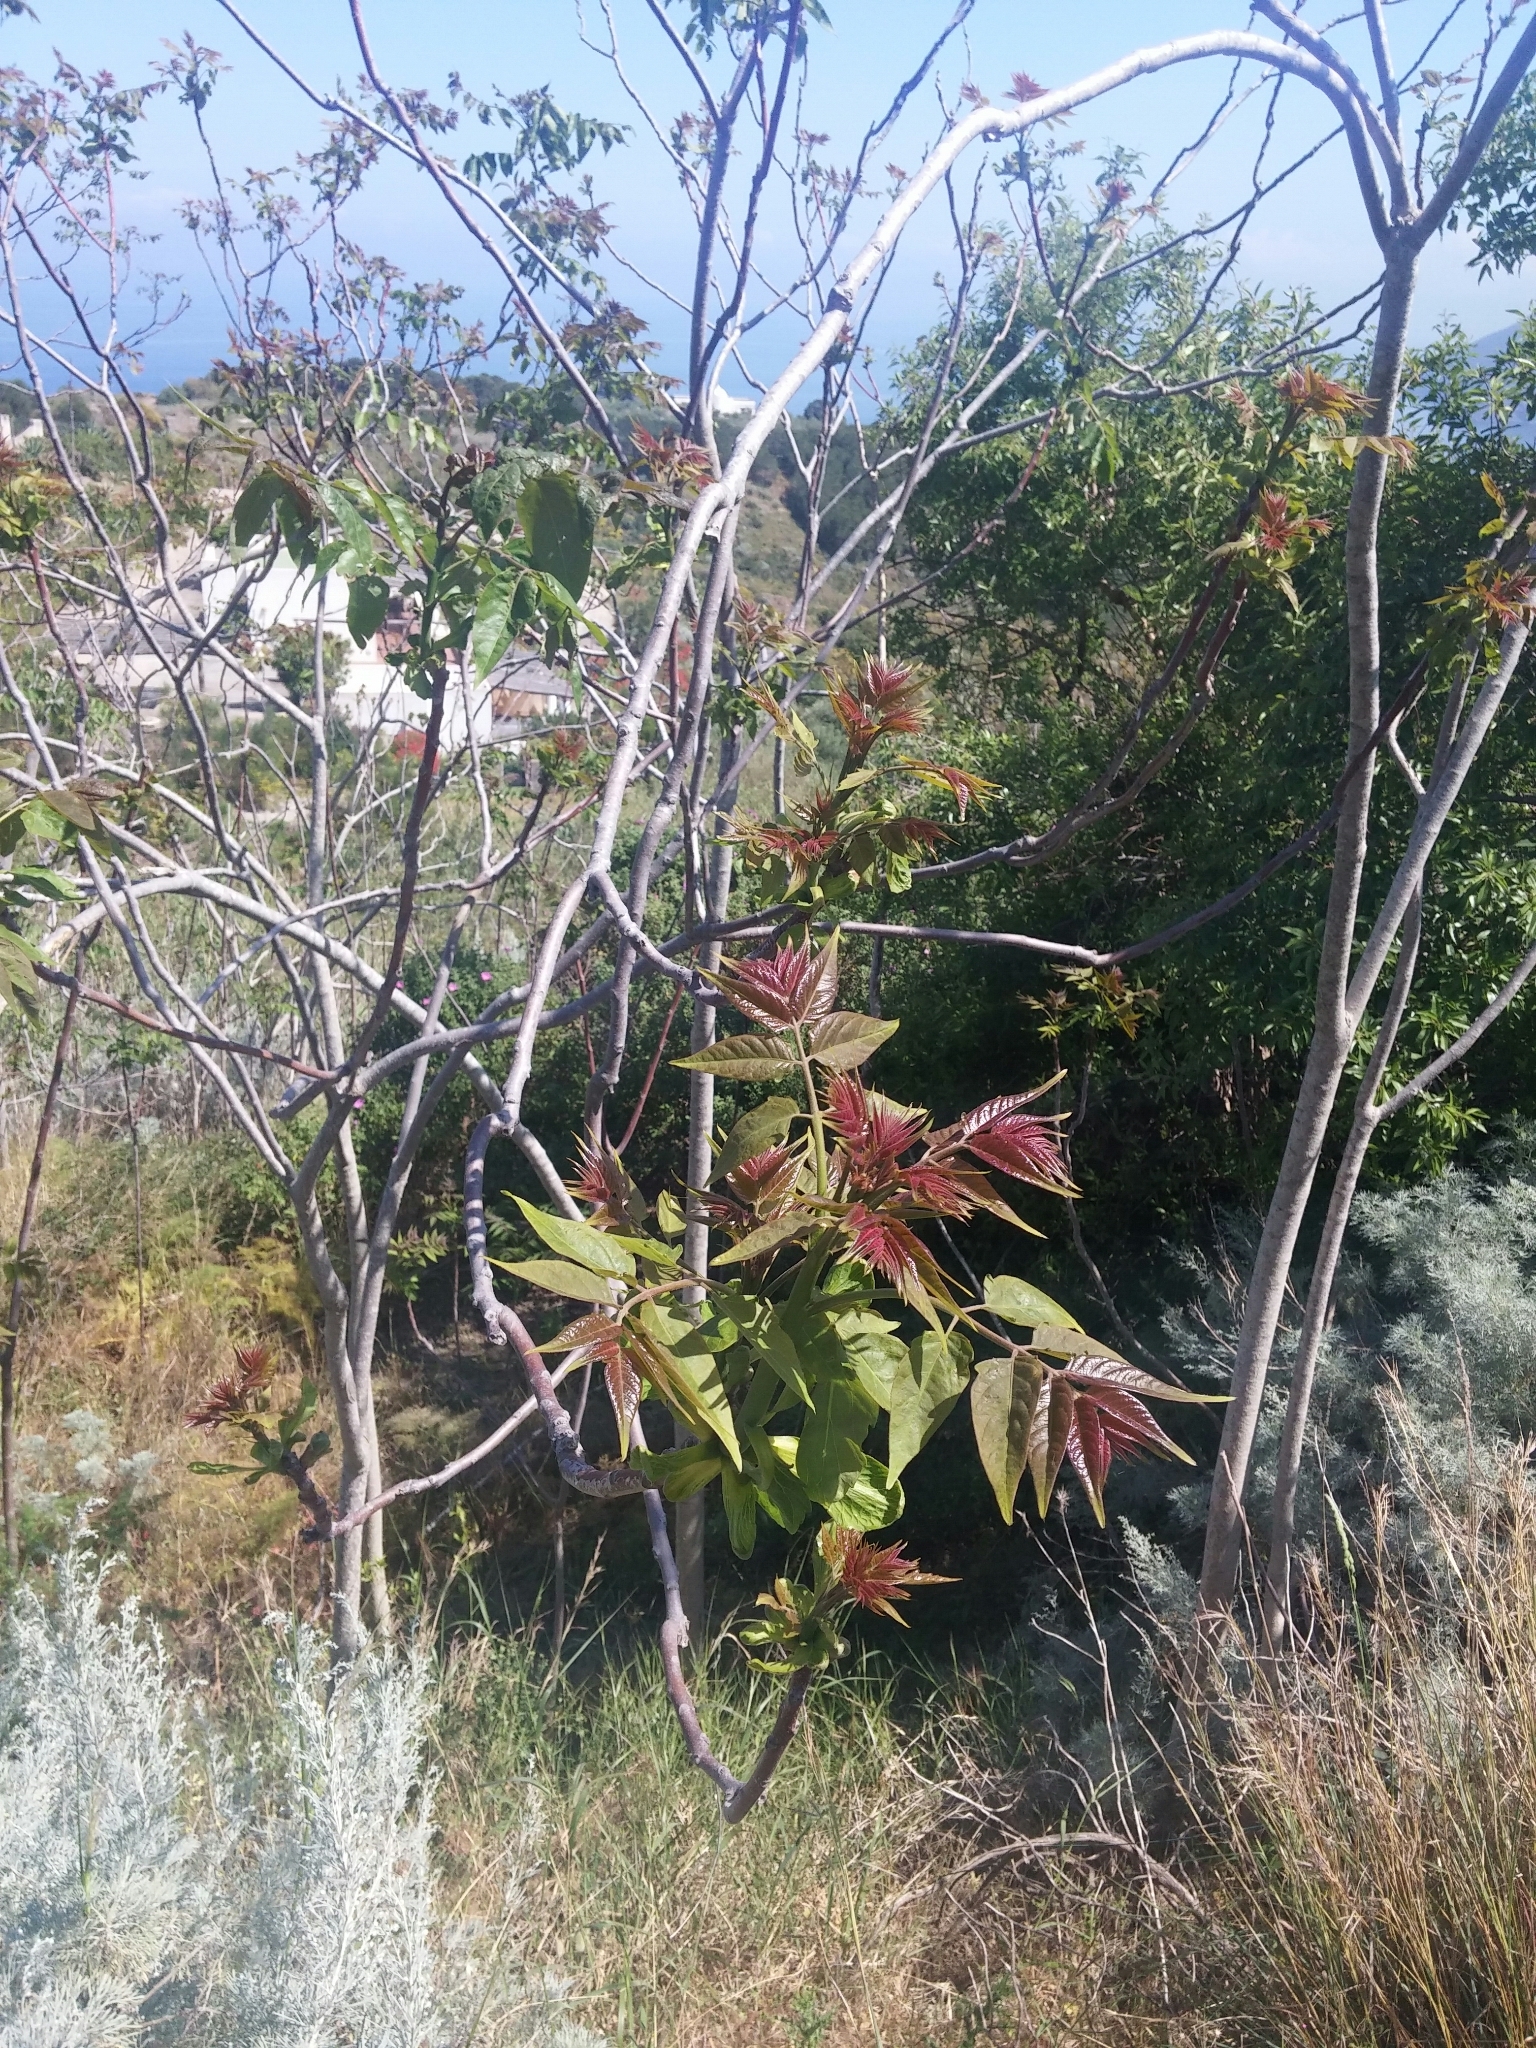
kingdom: Plantae
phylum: Tracheophyta
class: Magnoliopsida
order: Sapindales
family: Simaroubaceae
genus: Ailanthus
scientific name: Ailanthus altissima
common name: Tree-of-heaven
